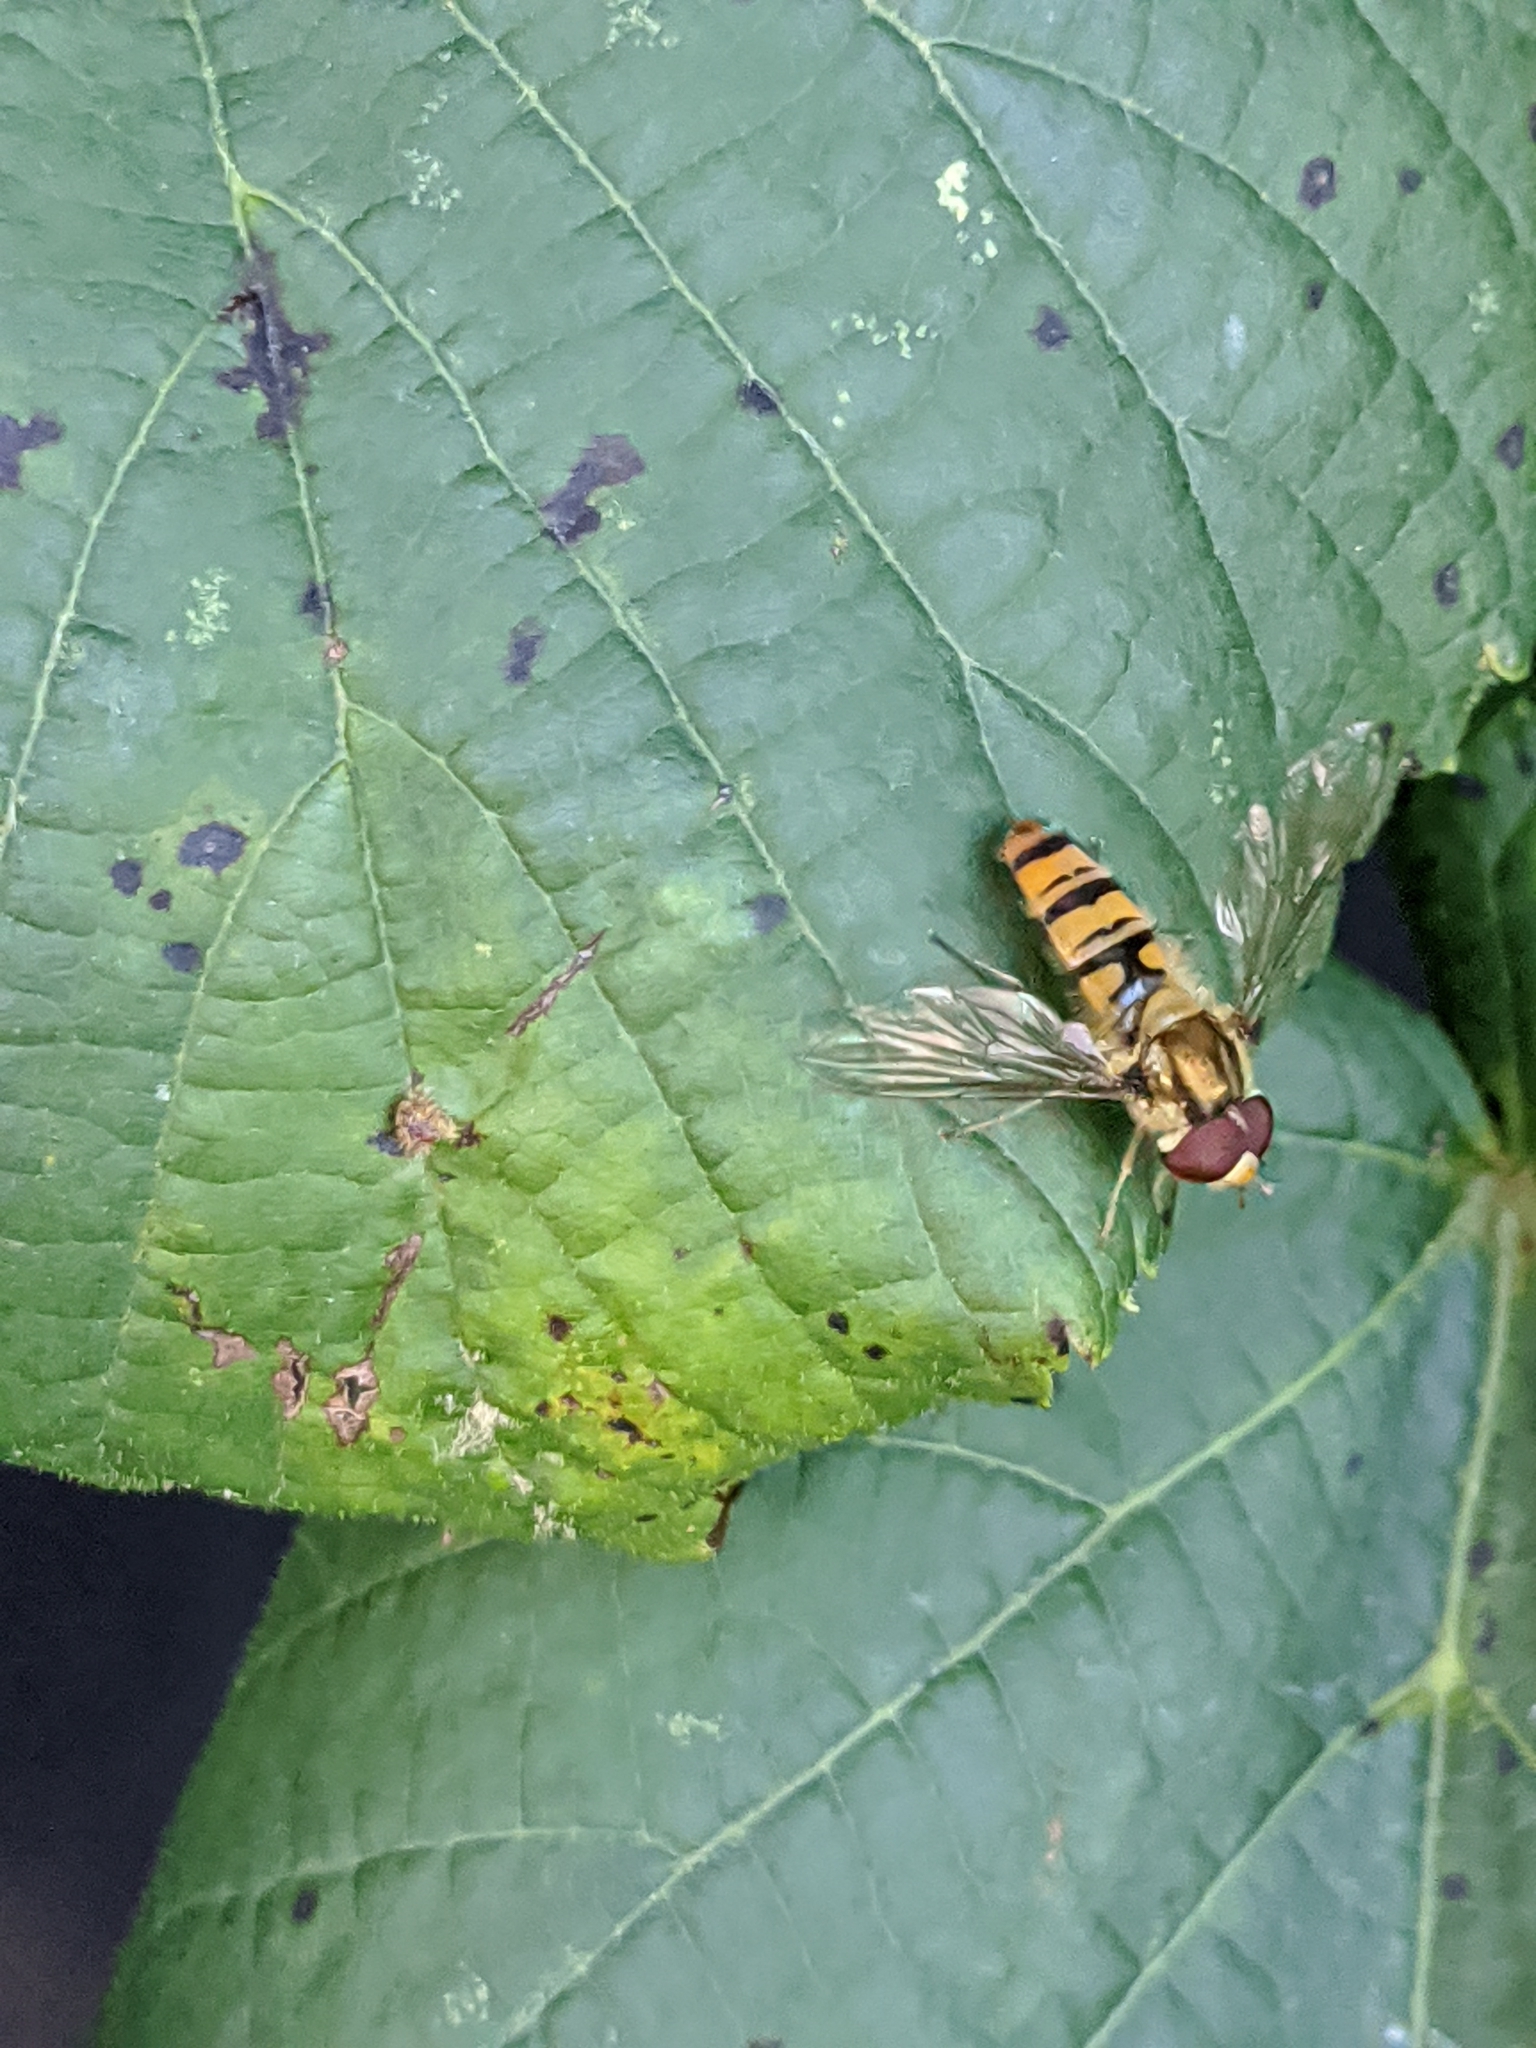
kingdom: Animalia
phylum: Arthropoda
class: Insecta
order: Diptera
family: Syrphidae
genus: Episyrphus
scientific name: Episyrphus balteatus
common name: Marmalade hoverfly
